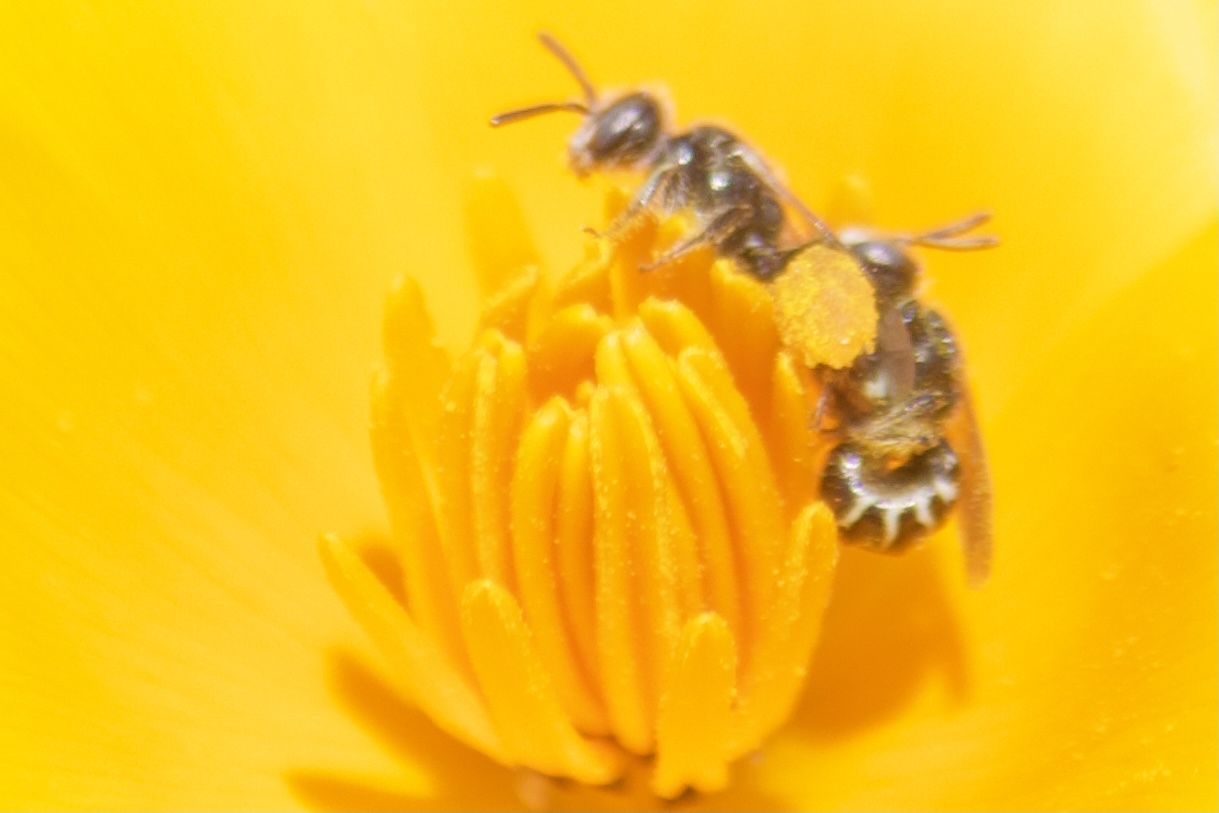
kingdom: Animalia
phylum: Arthropoda
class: Insecta
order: Hymenoptera
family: Andrenidae
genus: Perdita
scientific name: Perdita interrupta
